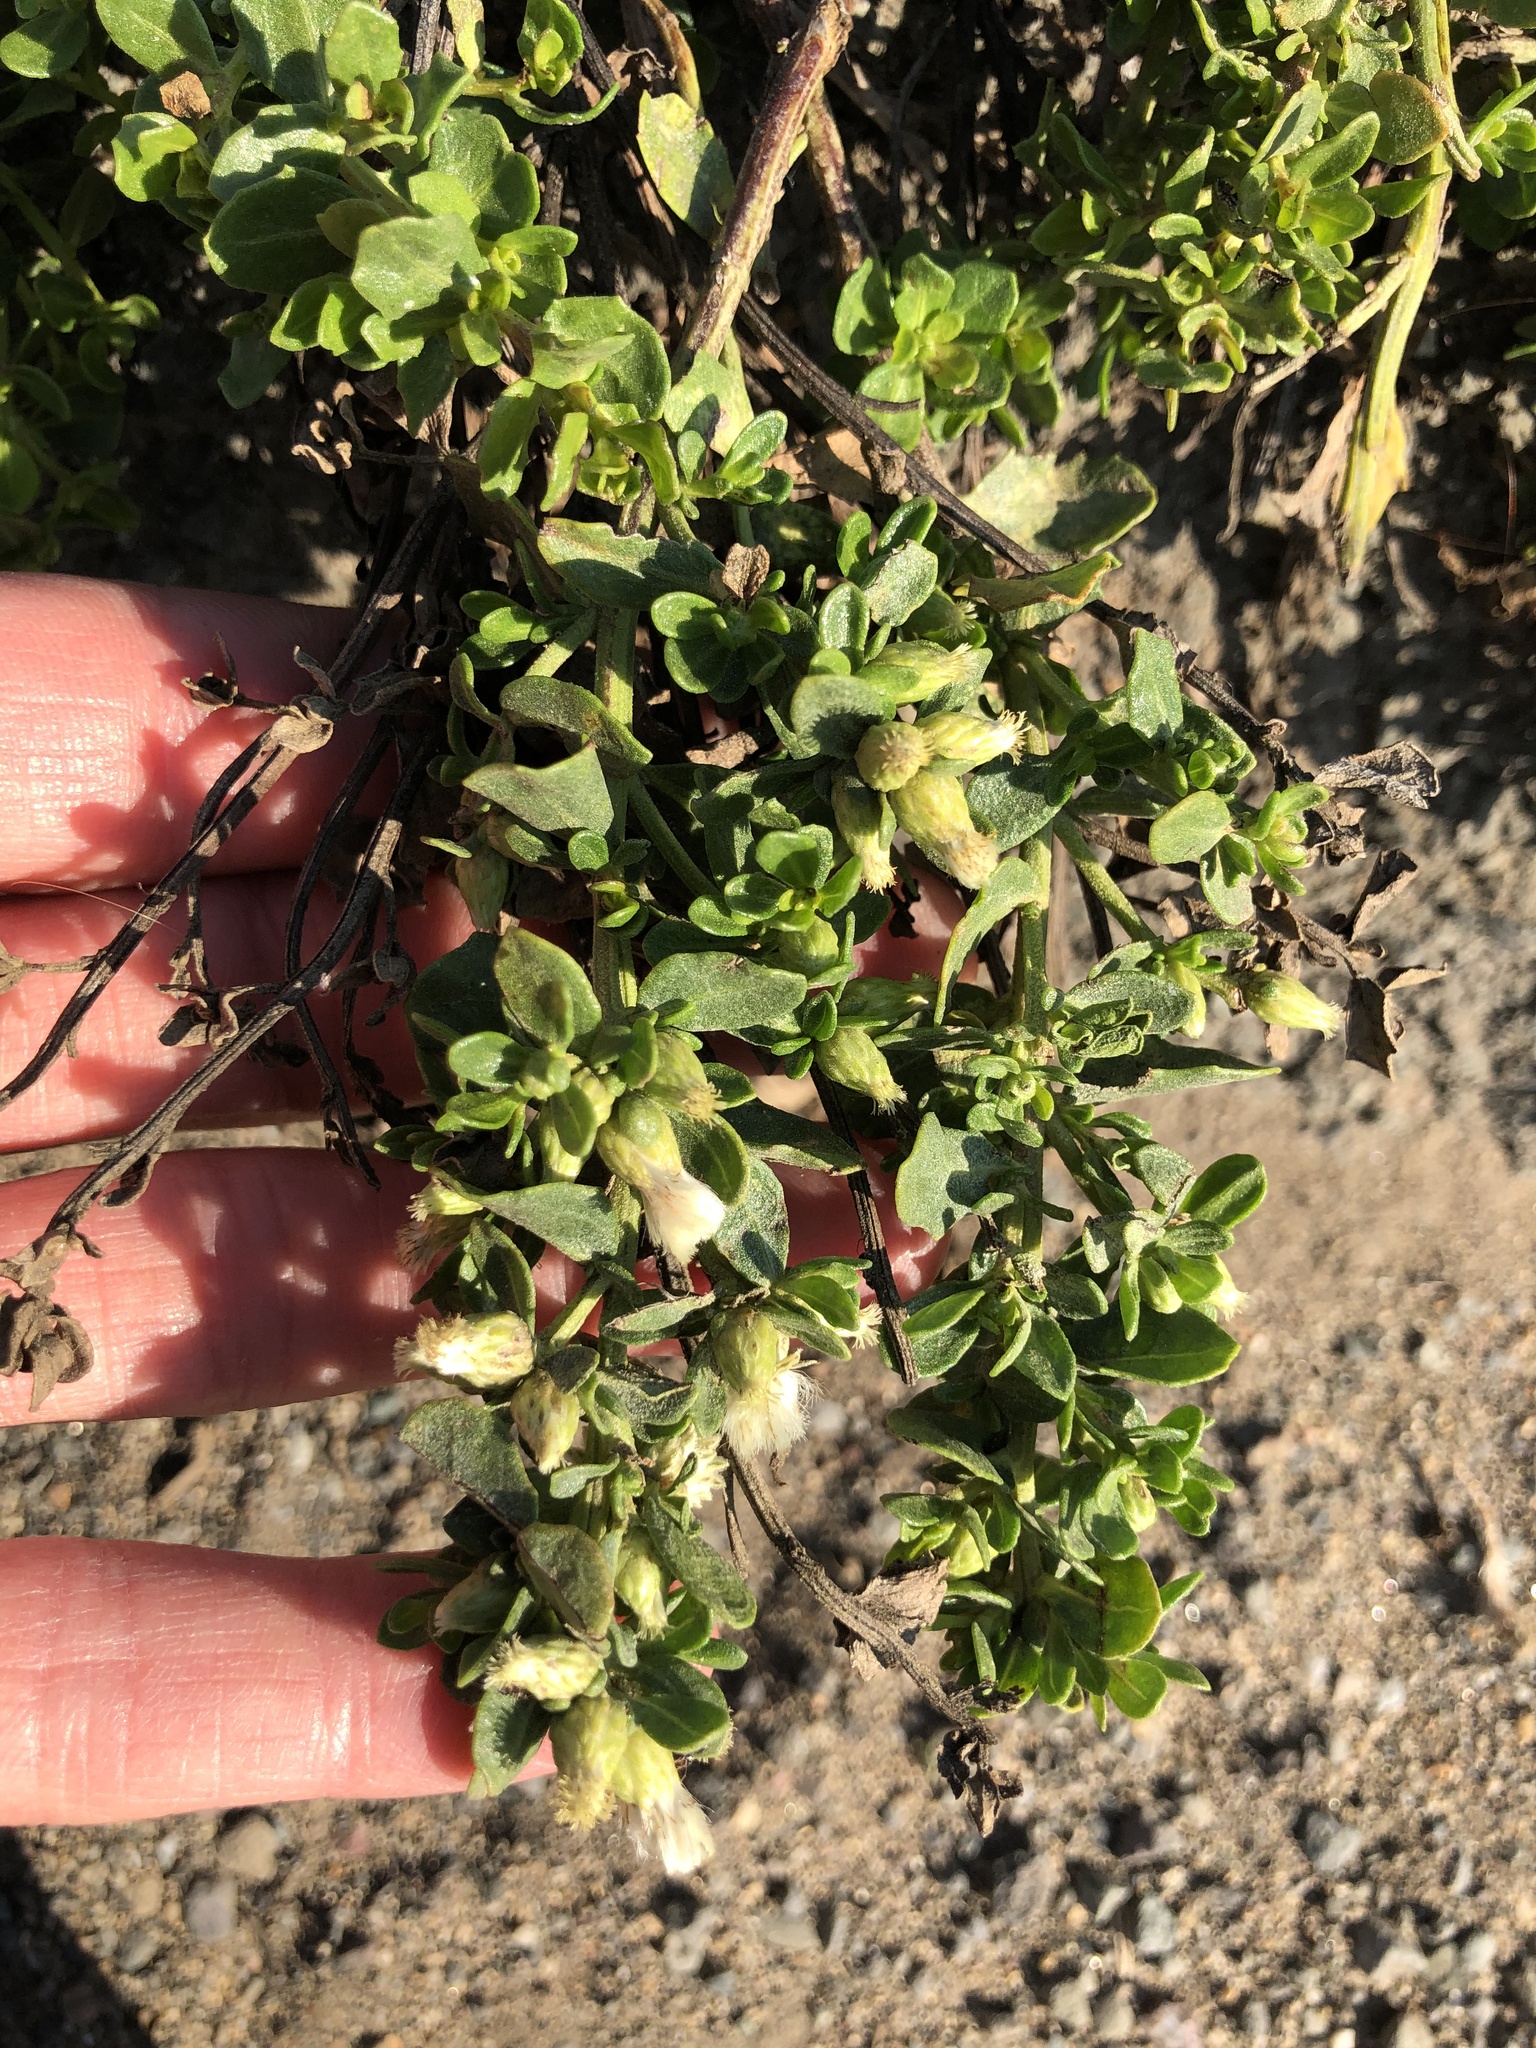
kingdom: Plantae
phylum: Tracheophyta
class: Magnoliopsida
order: Asterales
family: Asteraceae
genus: Baccharis
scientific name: Baccharis pilularis
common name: Coyotebrush
